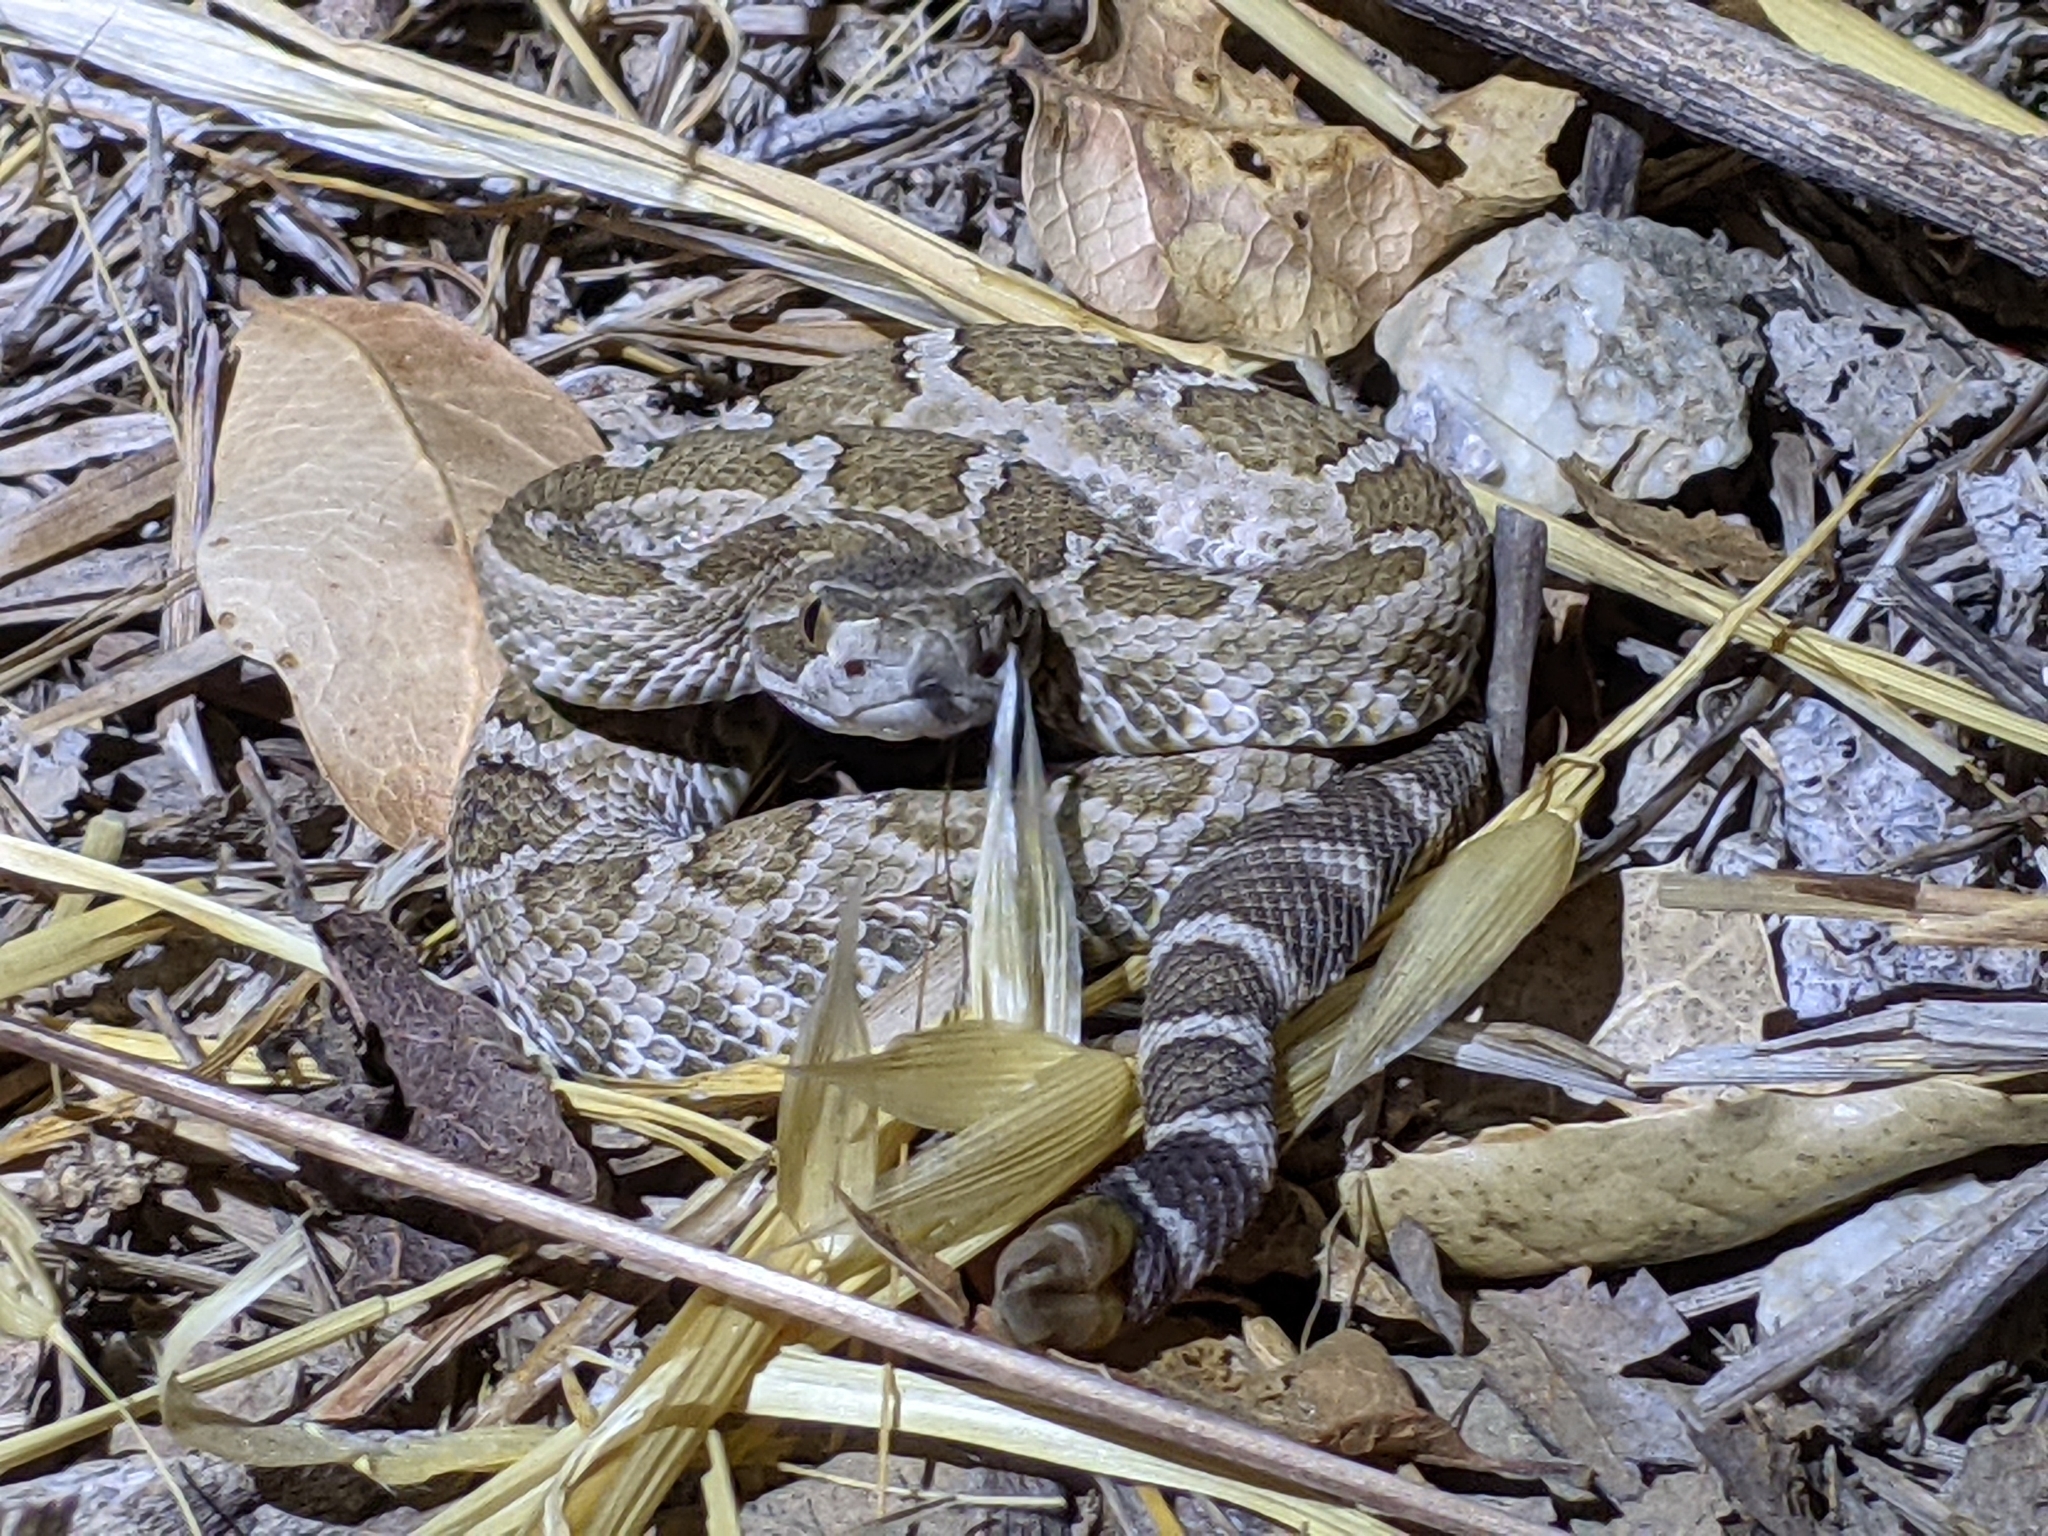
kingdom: Animalia
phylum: Chordata
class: Squamata
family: Viperidae
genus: Crotalus
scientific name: Crotalus oreganus
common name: Abyssus
